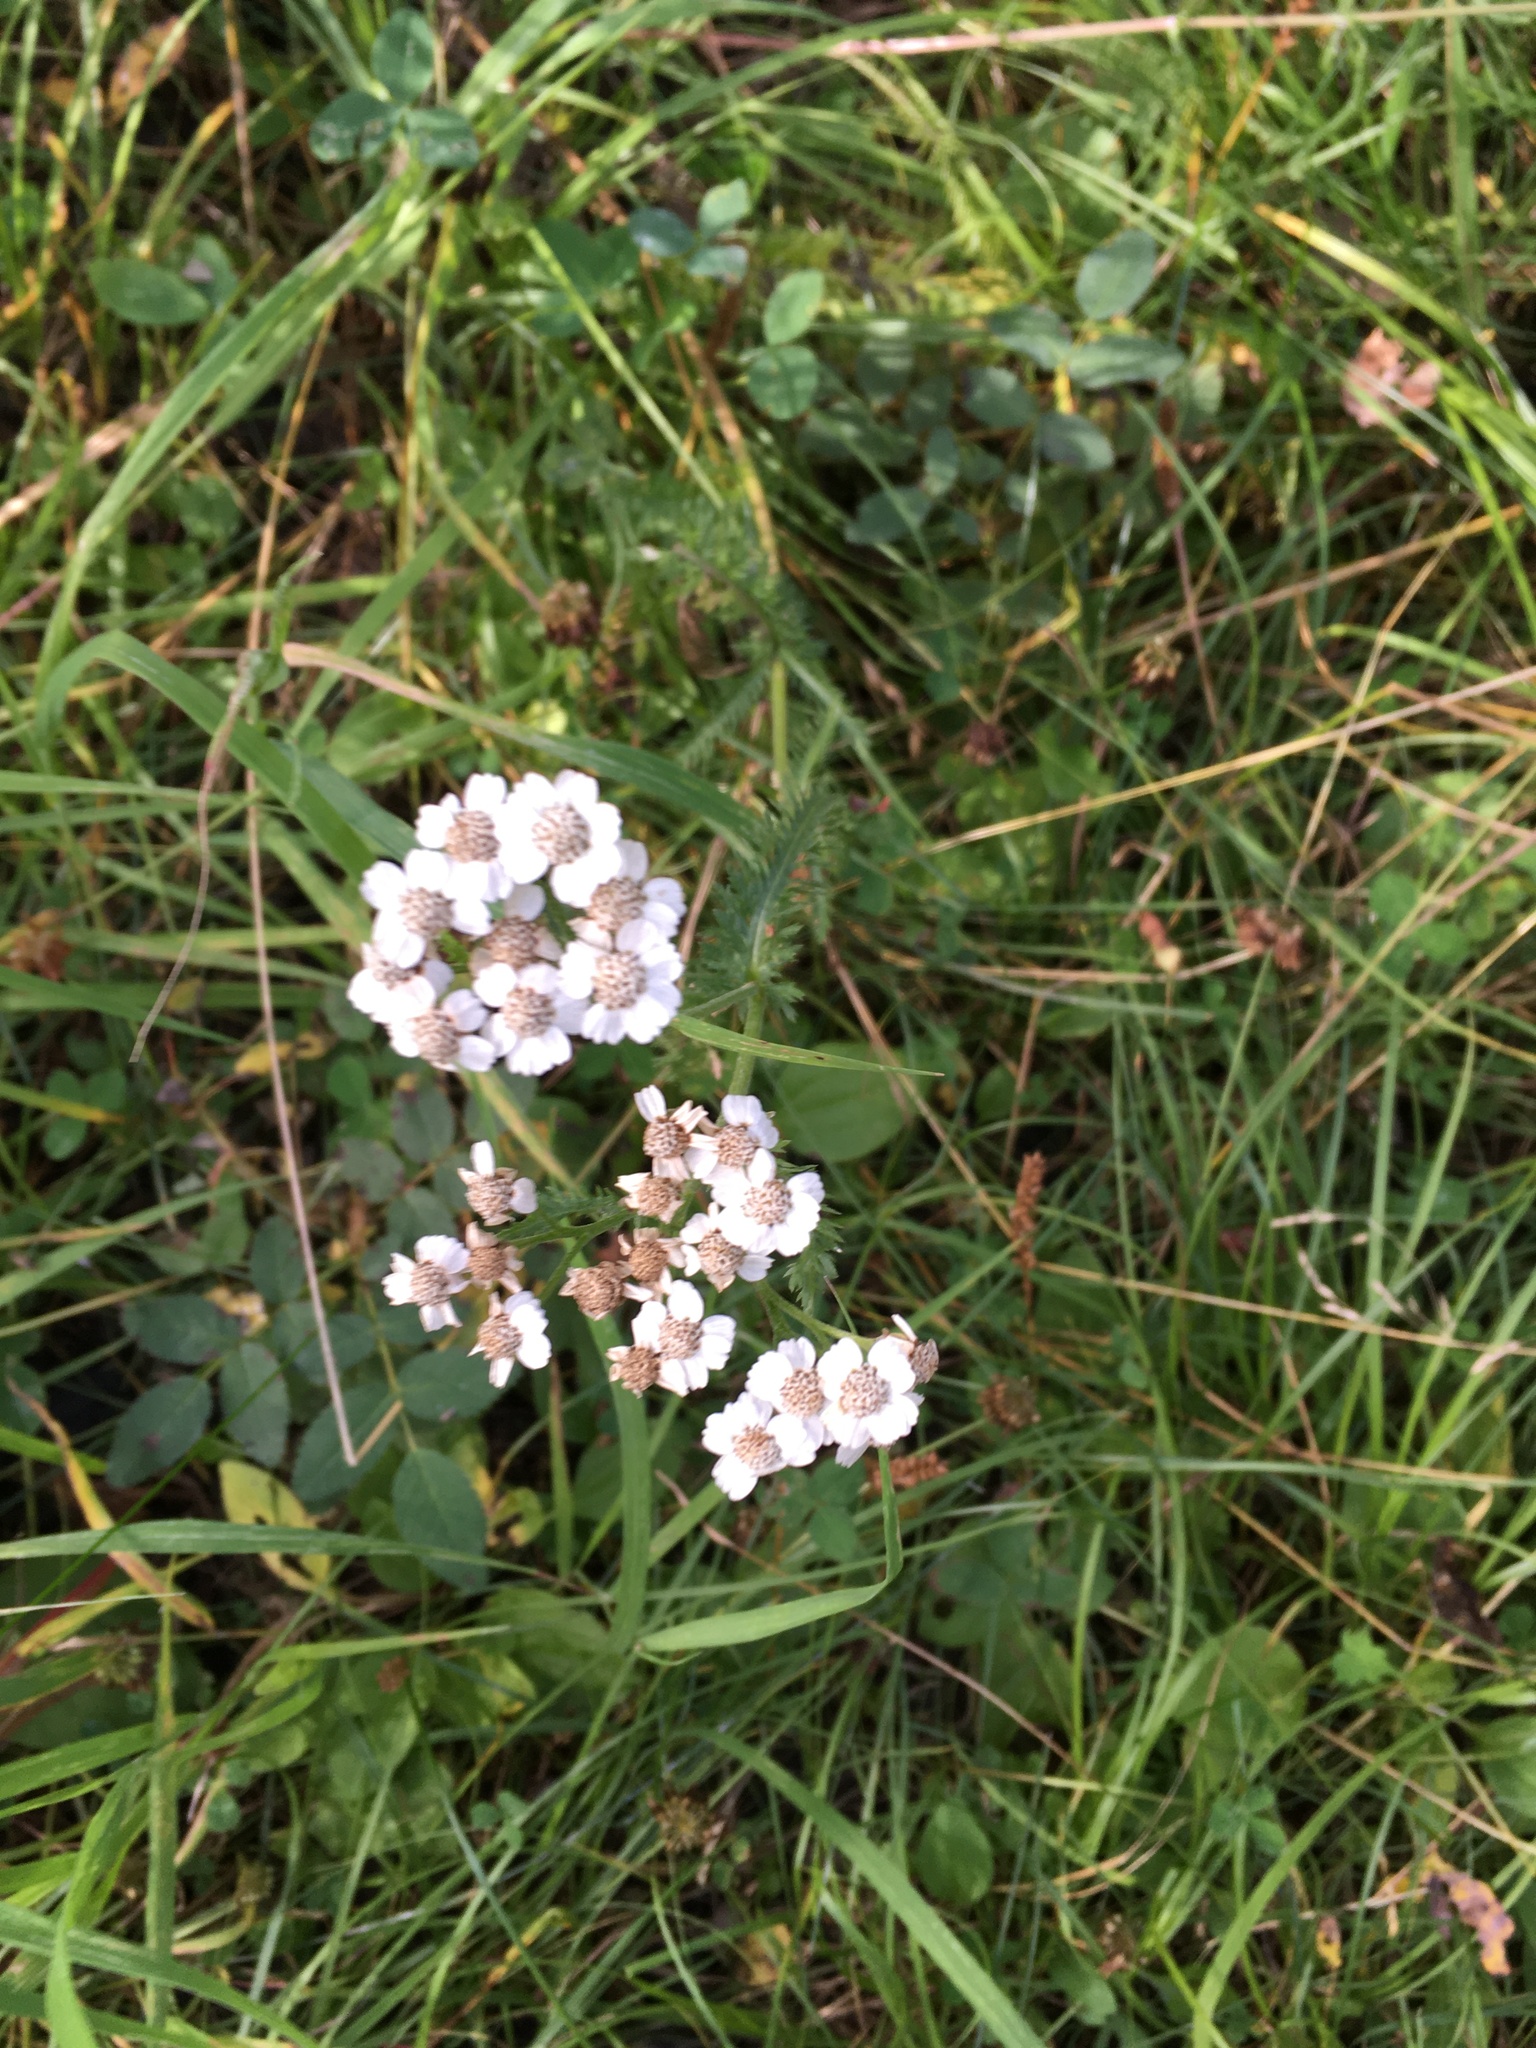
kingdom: Plantae
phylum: Tracheophyta
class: Magnoliopsida
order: Asterales
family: Asteraceae
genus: Achillea
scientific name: Achillea millefolium
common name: Yarrow
